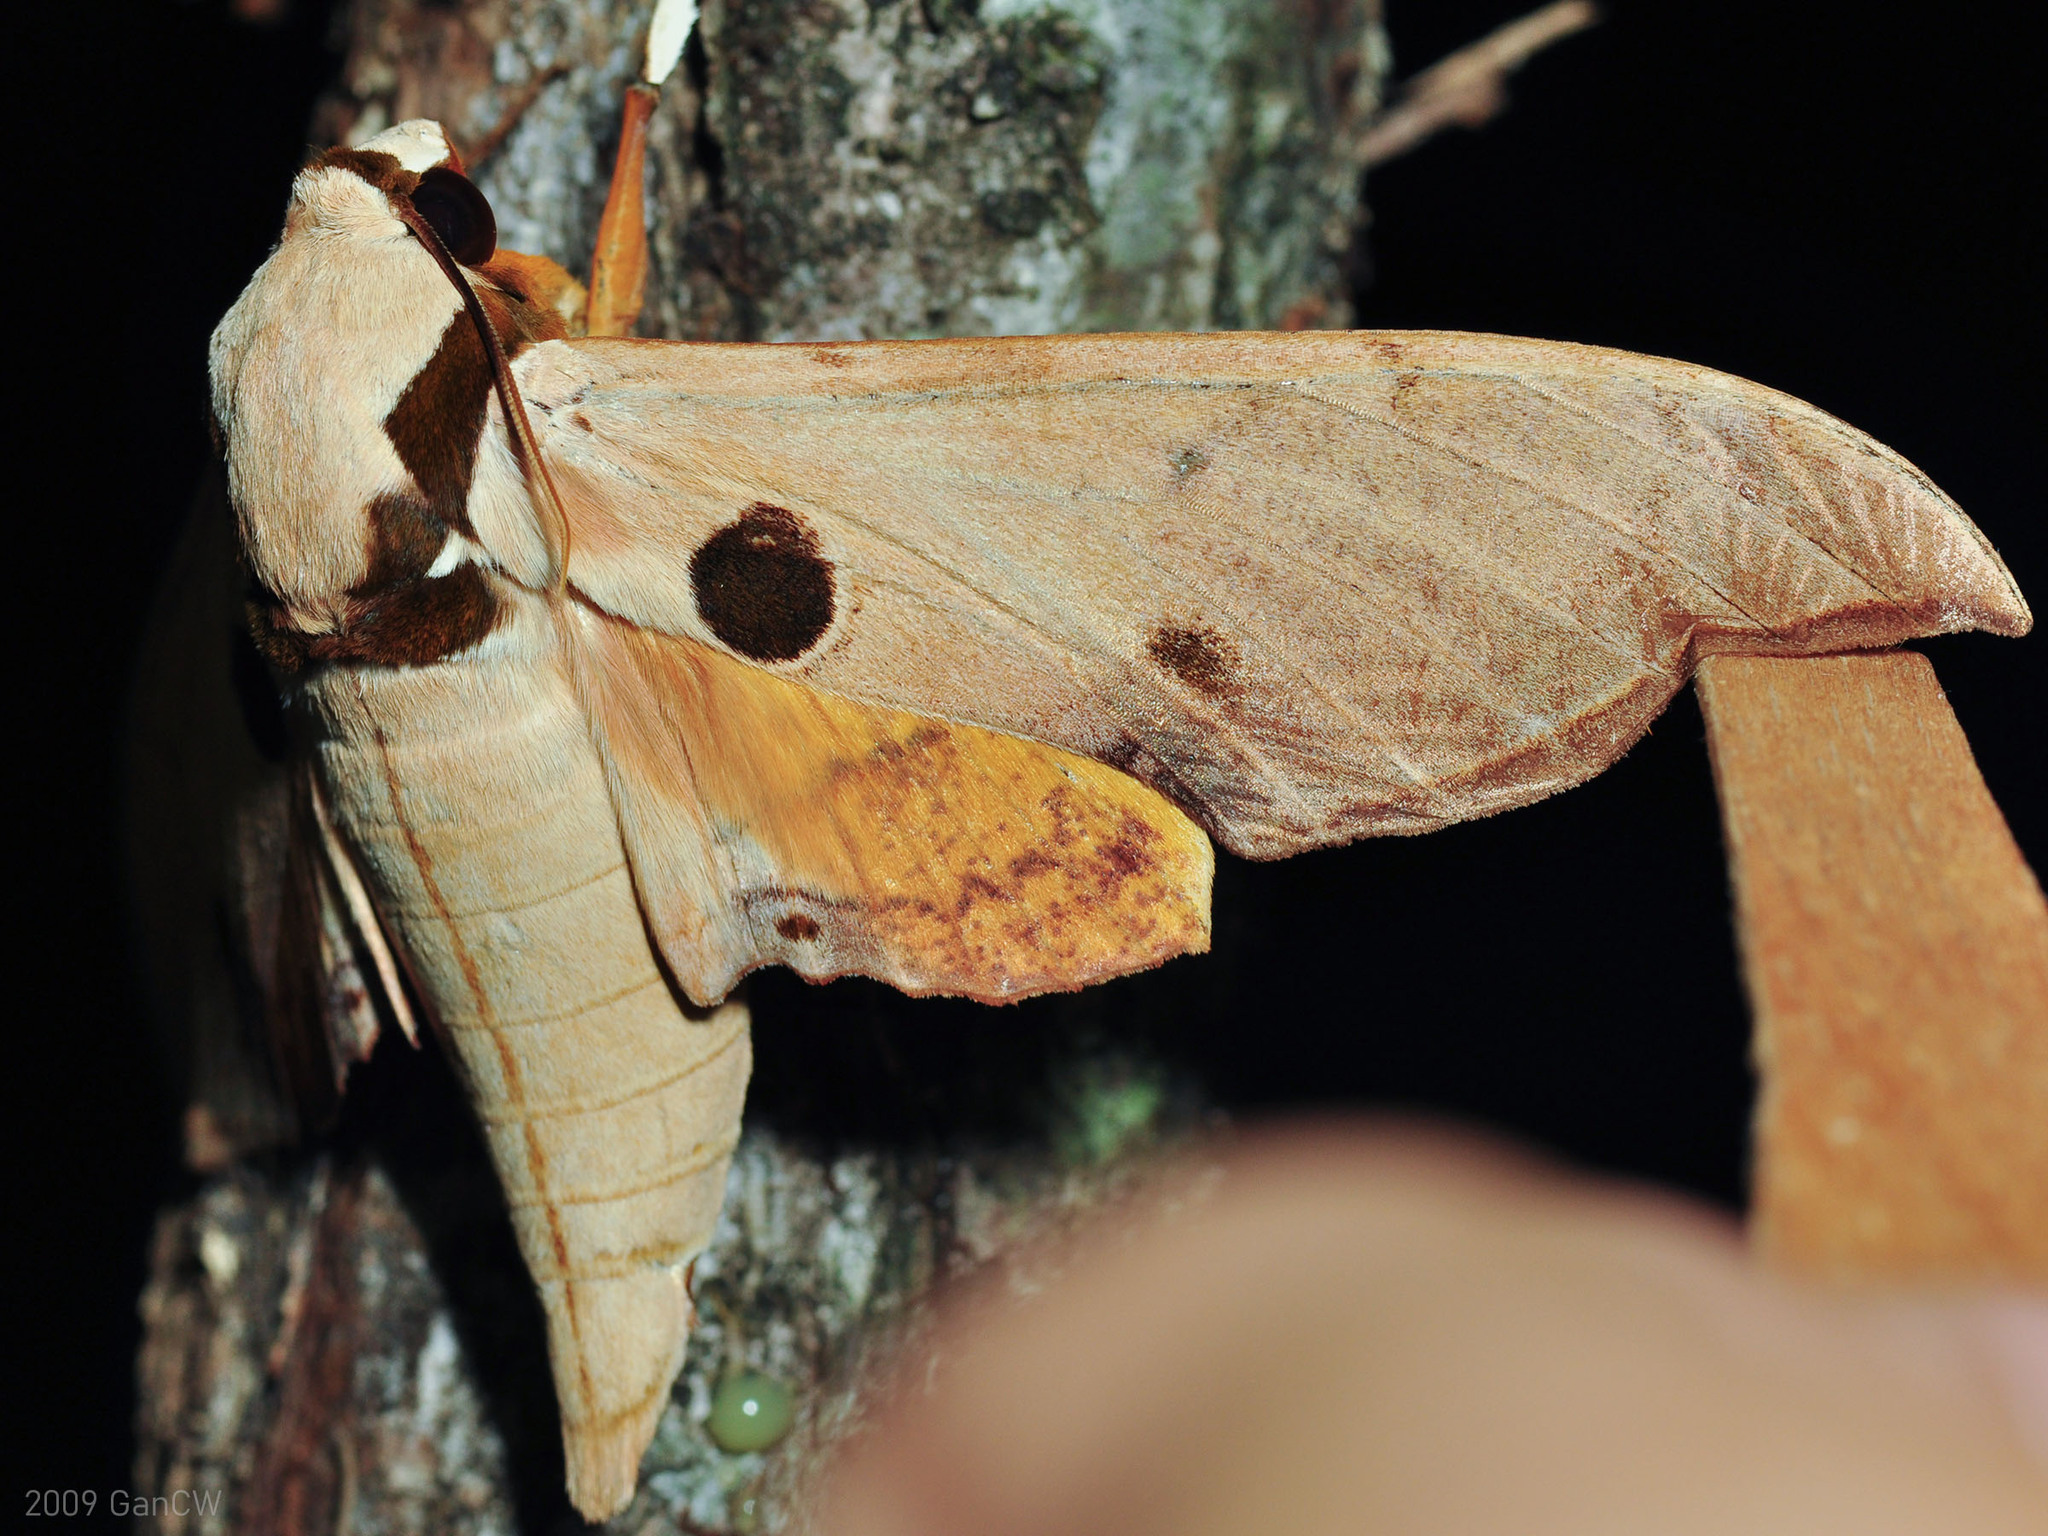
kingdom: Animalia
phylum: Arthropoda
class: Insecta
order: Lepidoptera
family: Sphingidae
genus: Ambulyx
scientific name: Ambulyx obliterata
